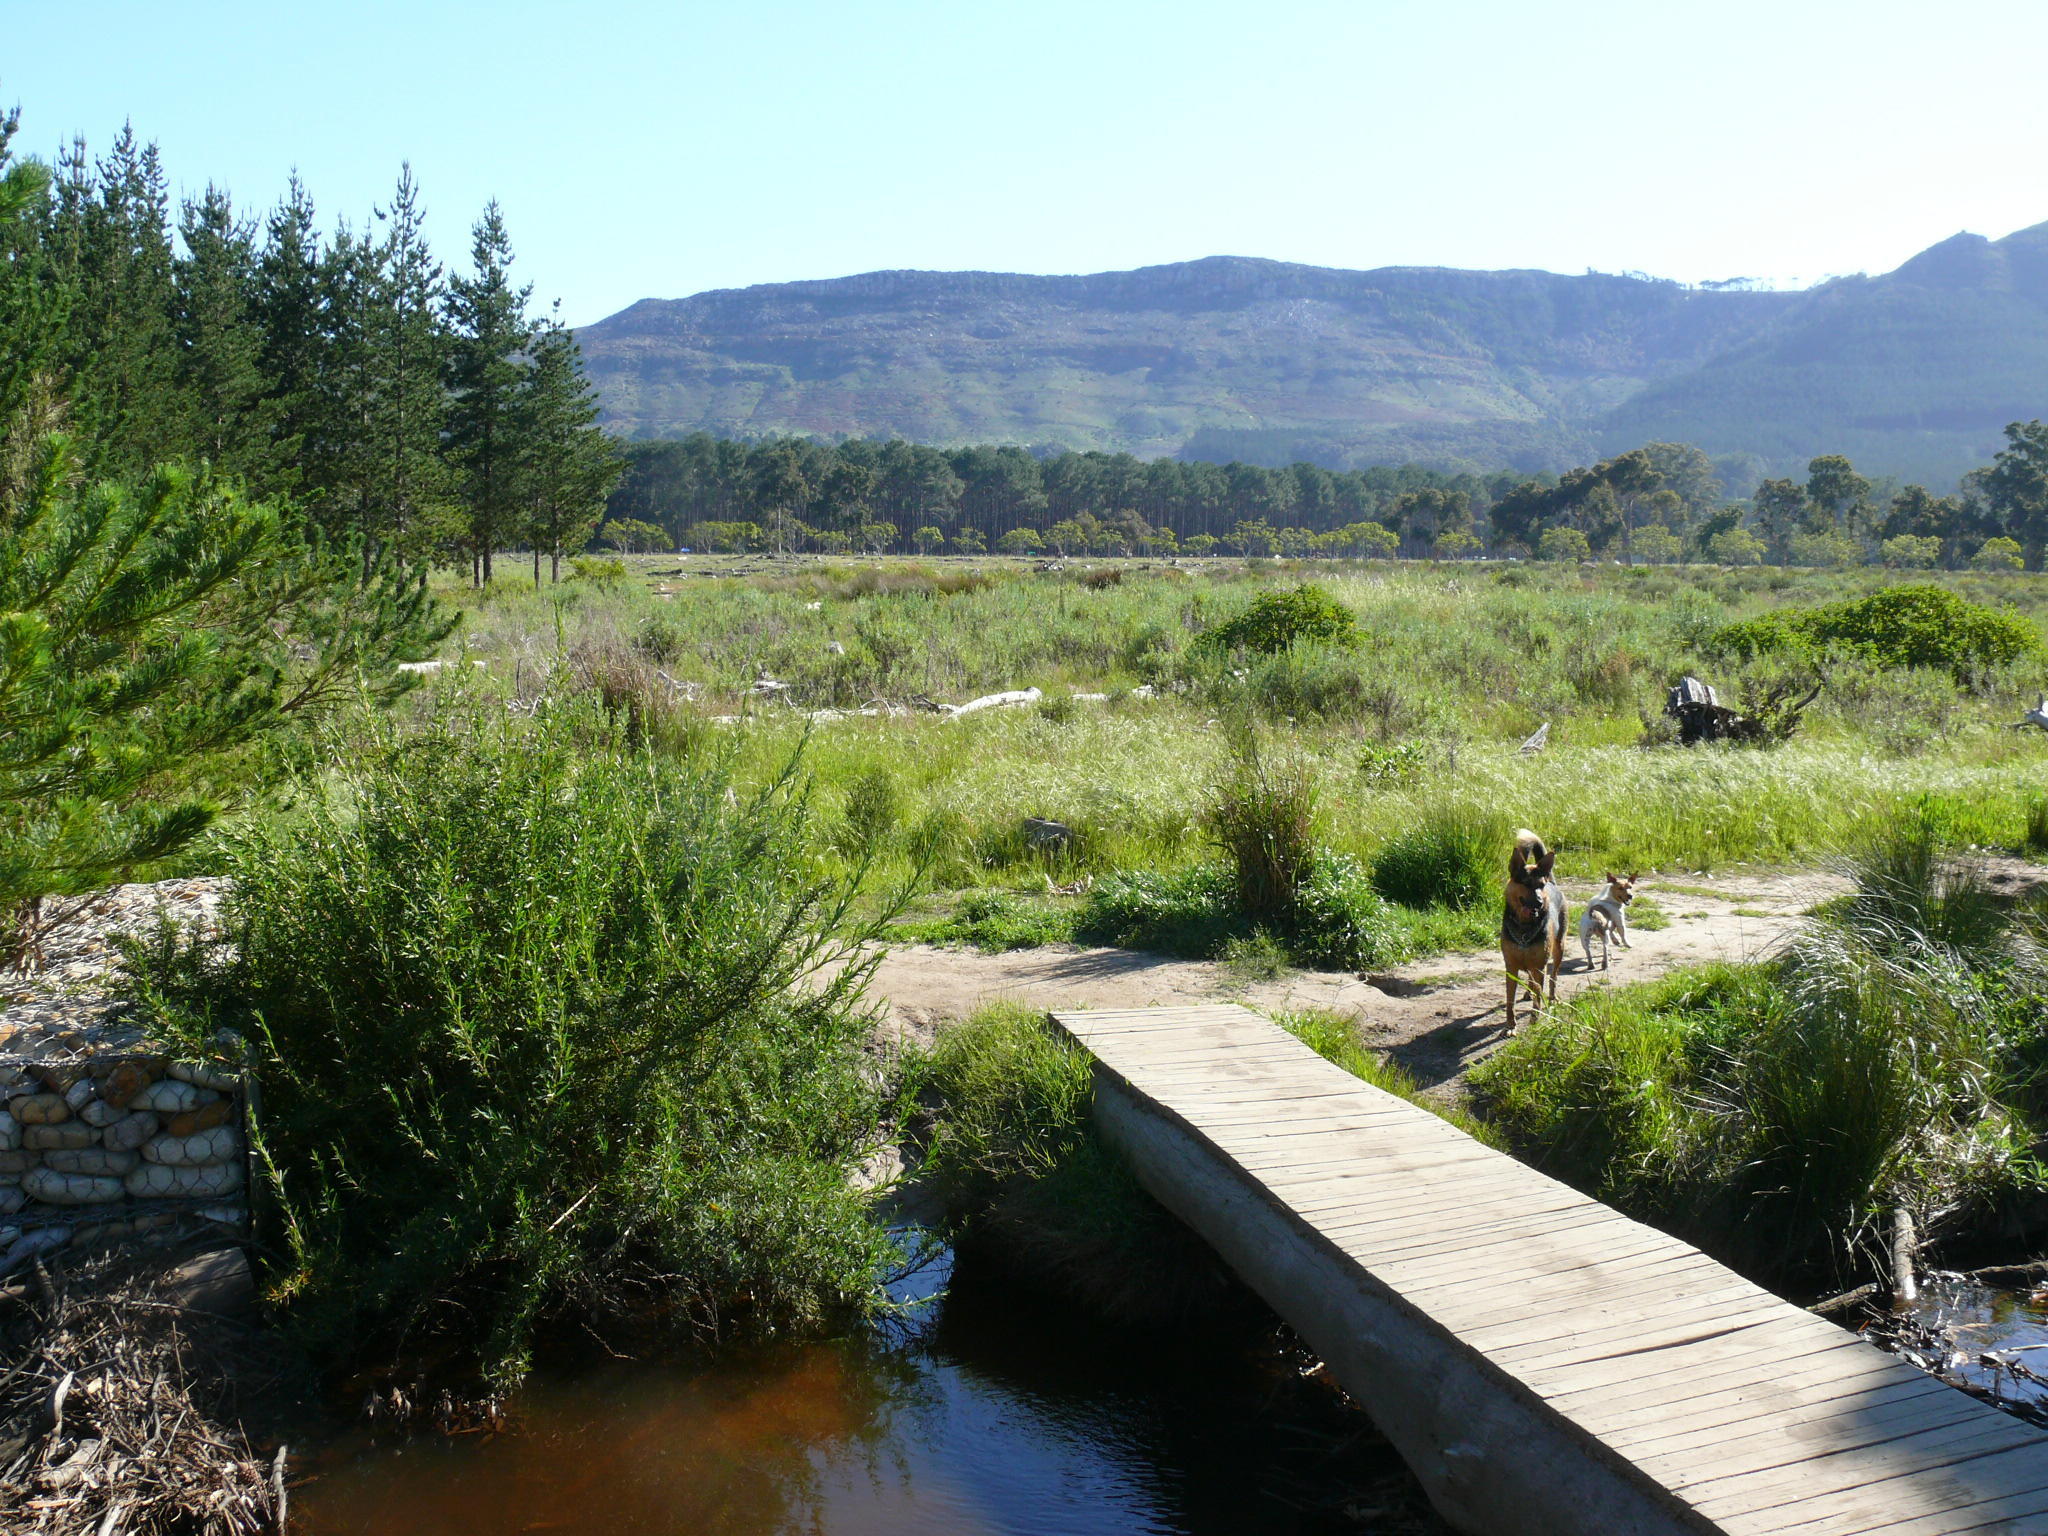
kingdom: Plantae
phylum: Tracheophyta
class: Magnoliopsida
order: Rosales
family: Rosaceae
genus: Cliffortia
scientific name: Cliffortia strobilifera
